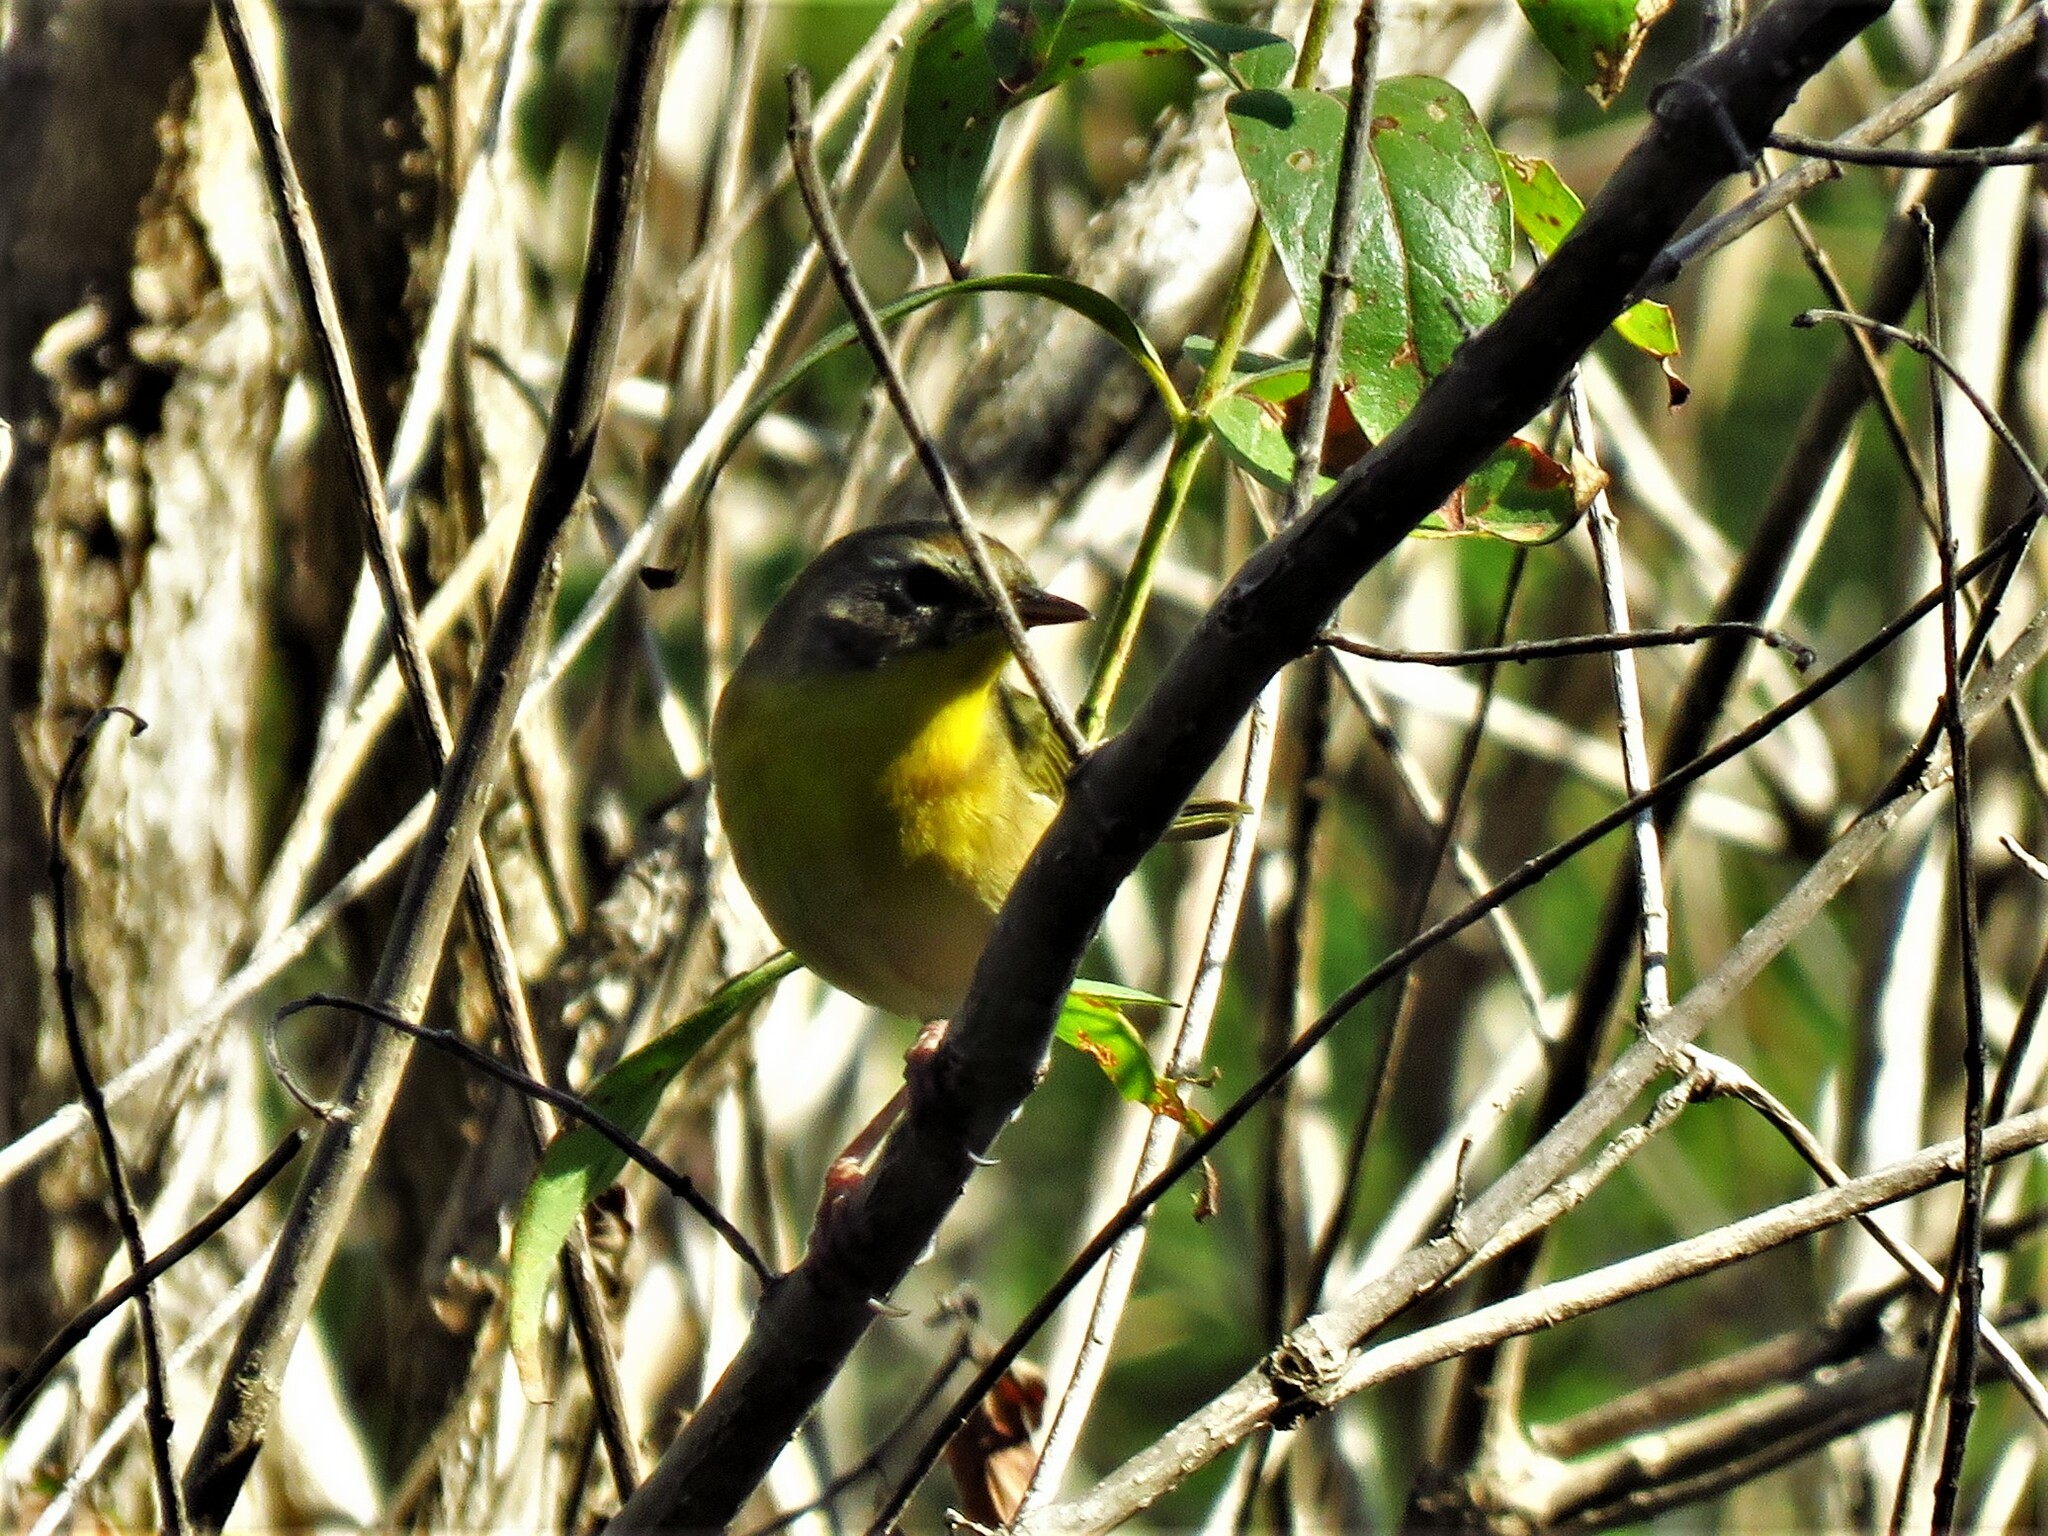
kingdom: Animalia
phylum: Chordata
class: Aves
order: Passeriformes
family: Parulidae
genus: Geothlypis
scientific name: Geothlypis trichas
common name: Common yellowthroat
